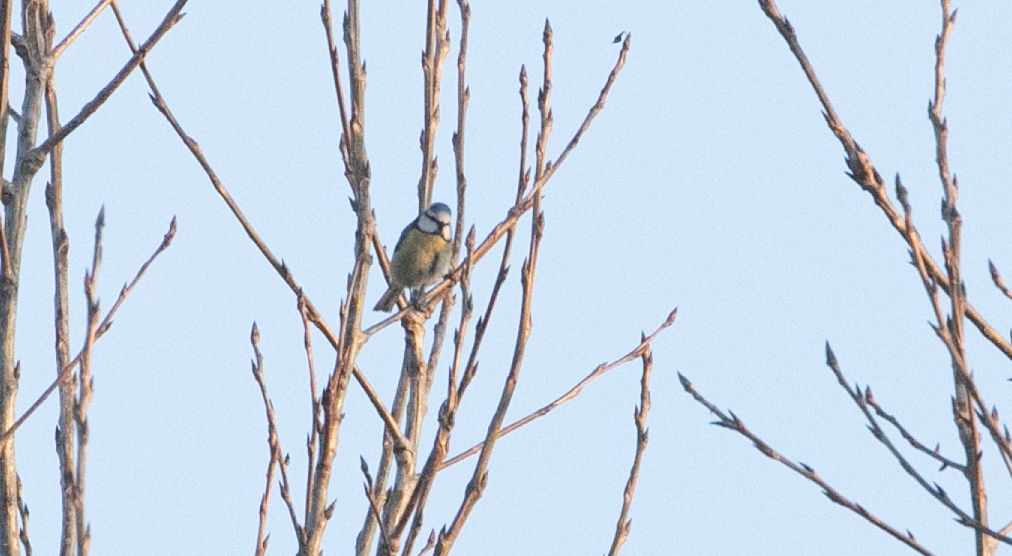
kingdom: Animalia
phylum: Chordata
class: Aves
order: Passeriformes
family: Paridae
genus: Cyanistes
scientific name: Cyanistes caeruleus
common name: Eurasian blue tit
